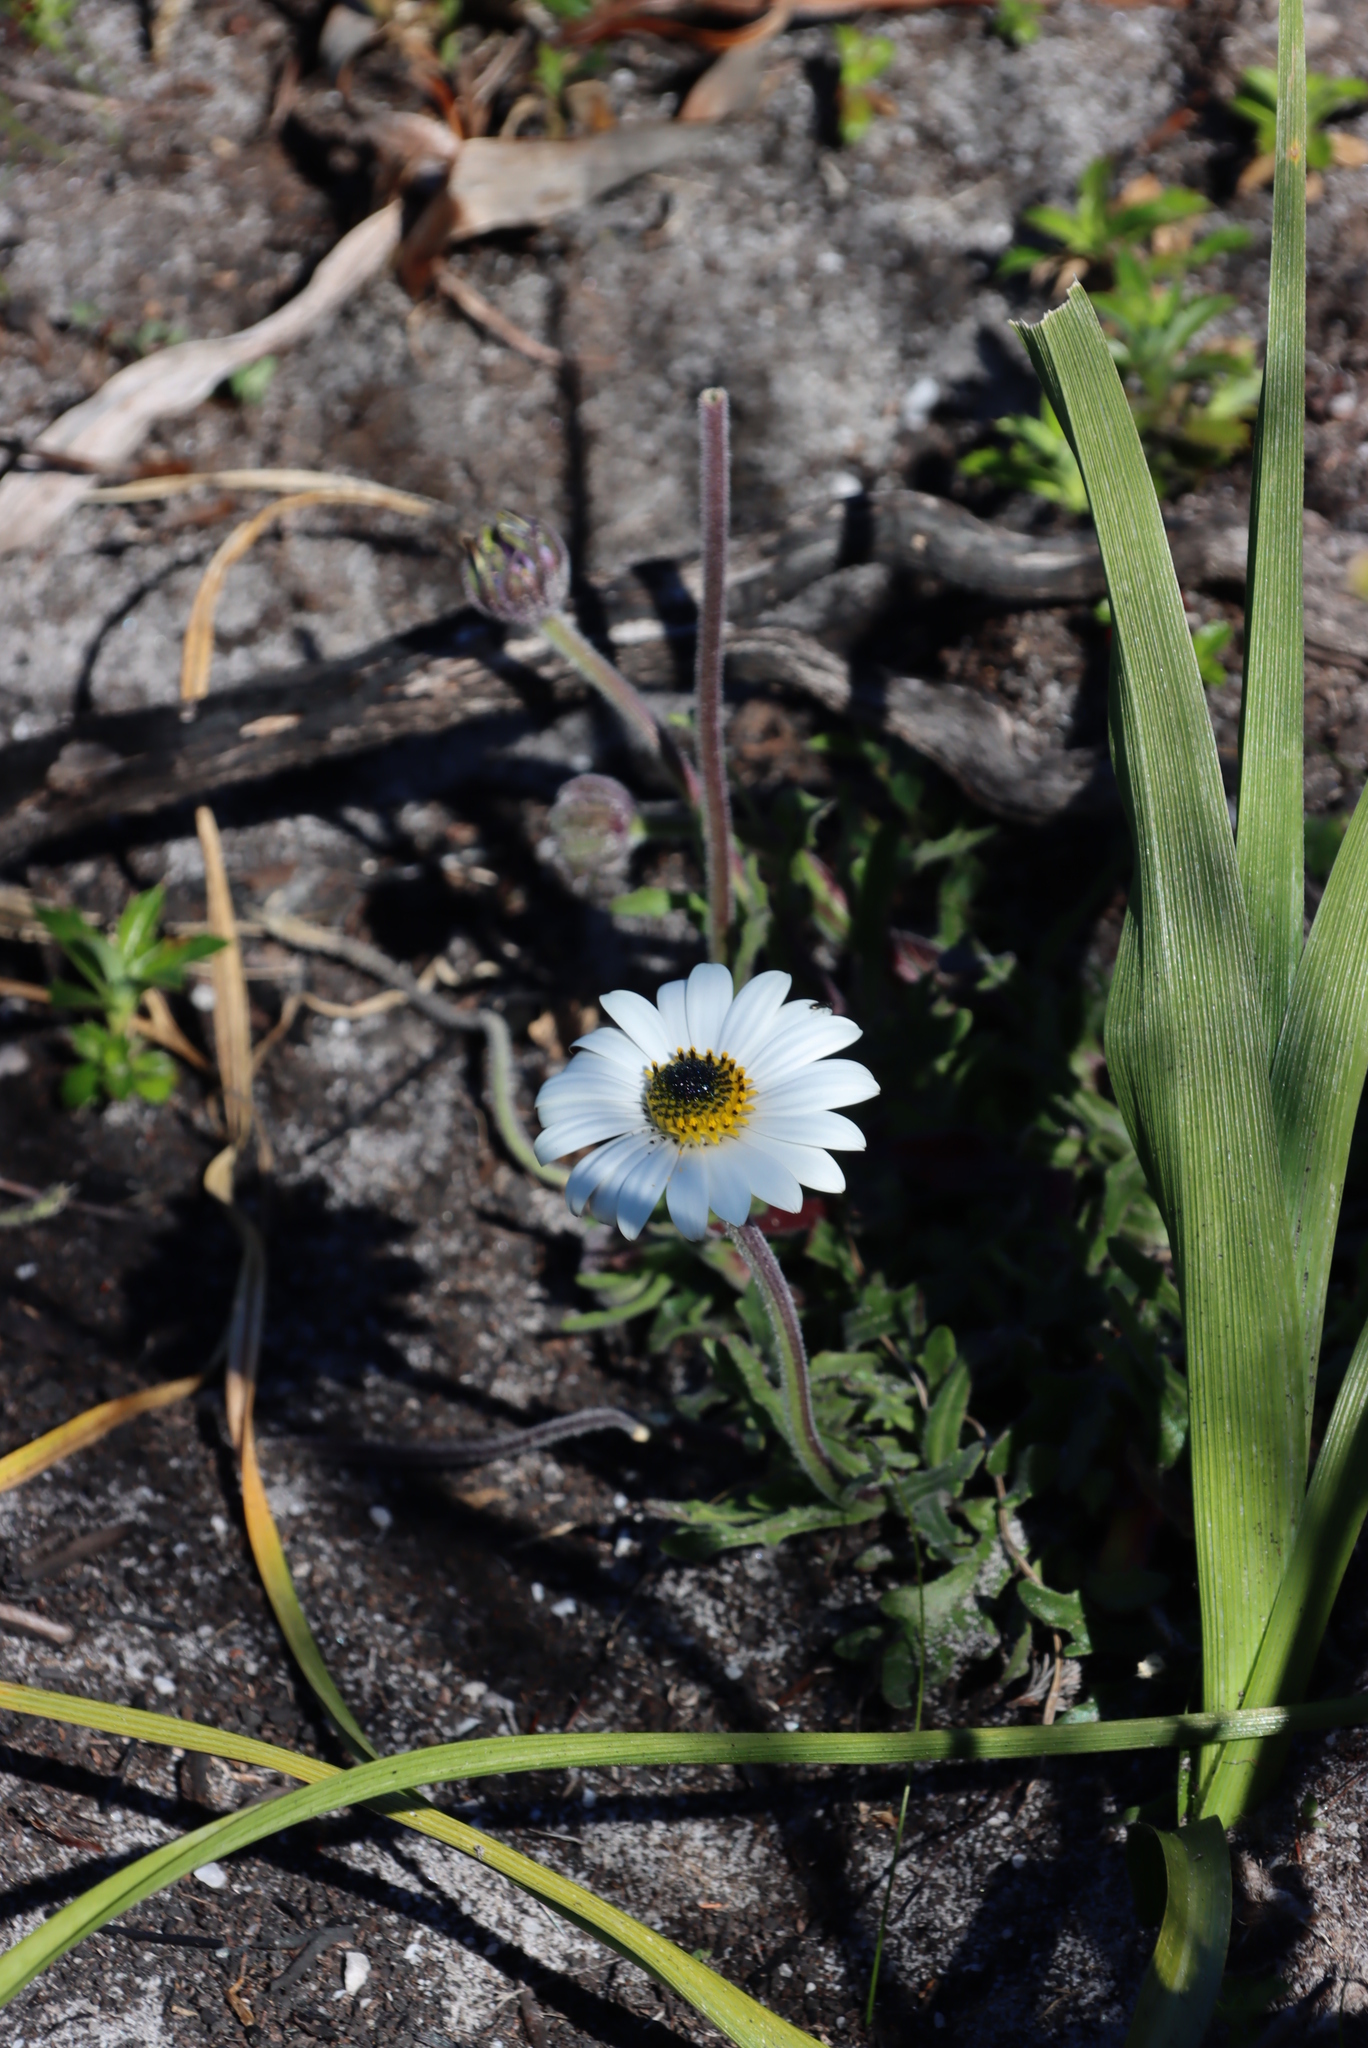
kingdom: Plantae
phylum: Tracheophyta
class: Magnoliopsida
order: Asterales
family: Asteraceae
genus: Dimorphotheca
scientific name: Dimorphotheca nudicaulis
